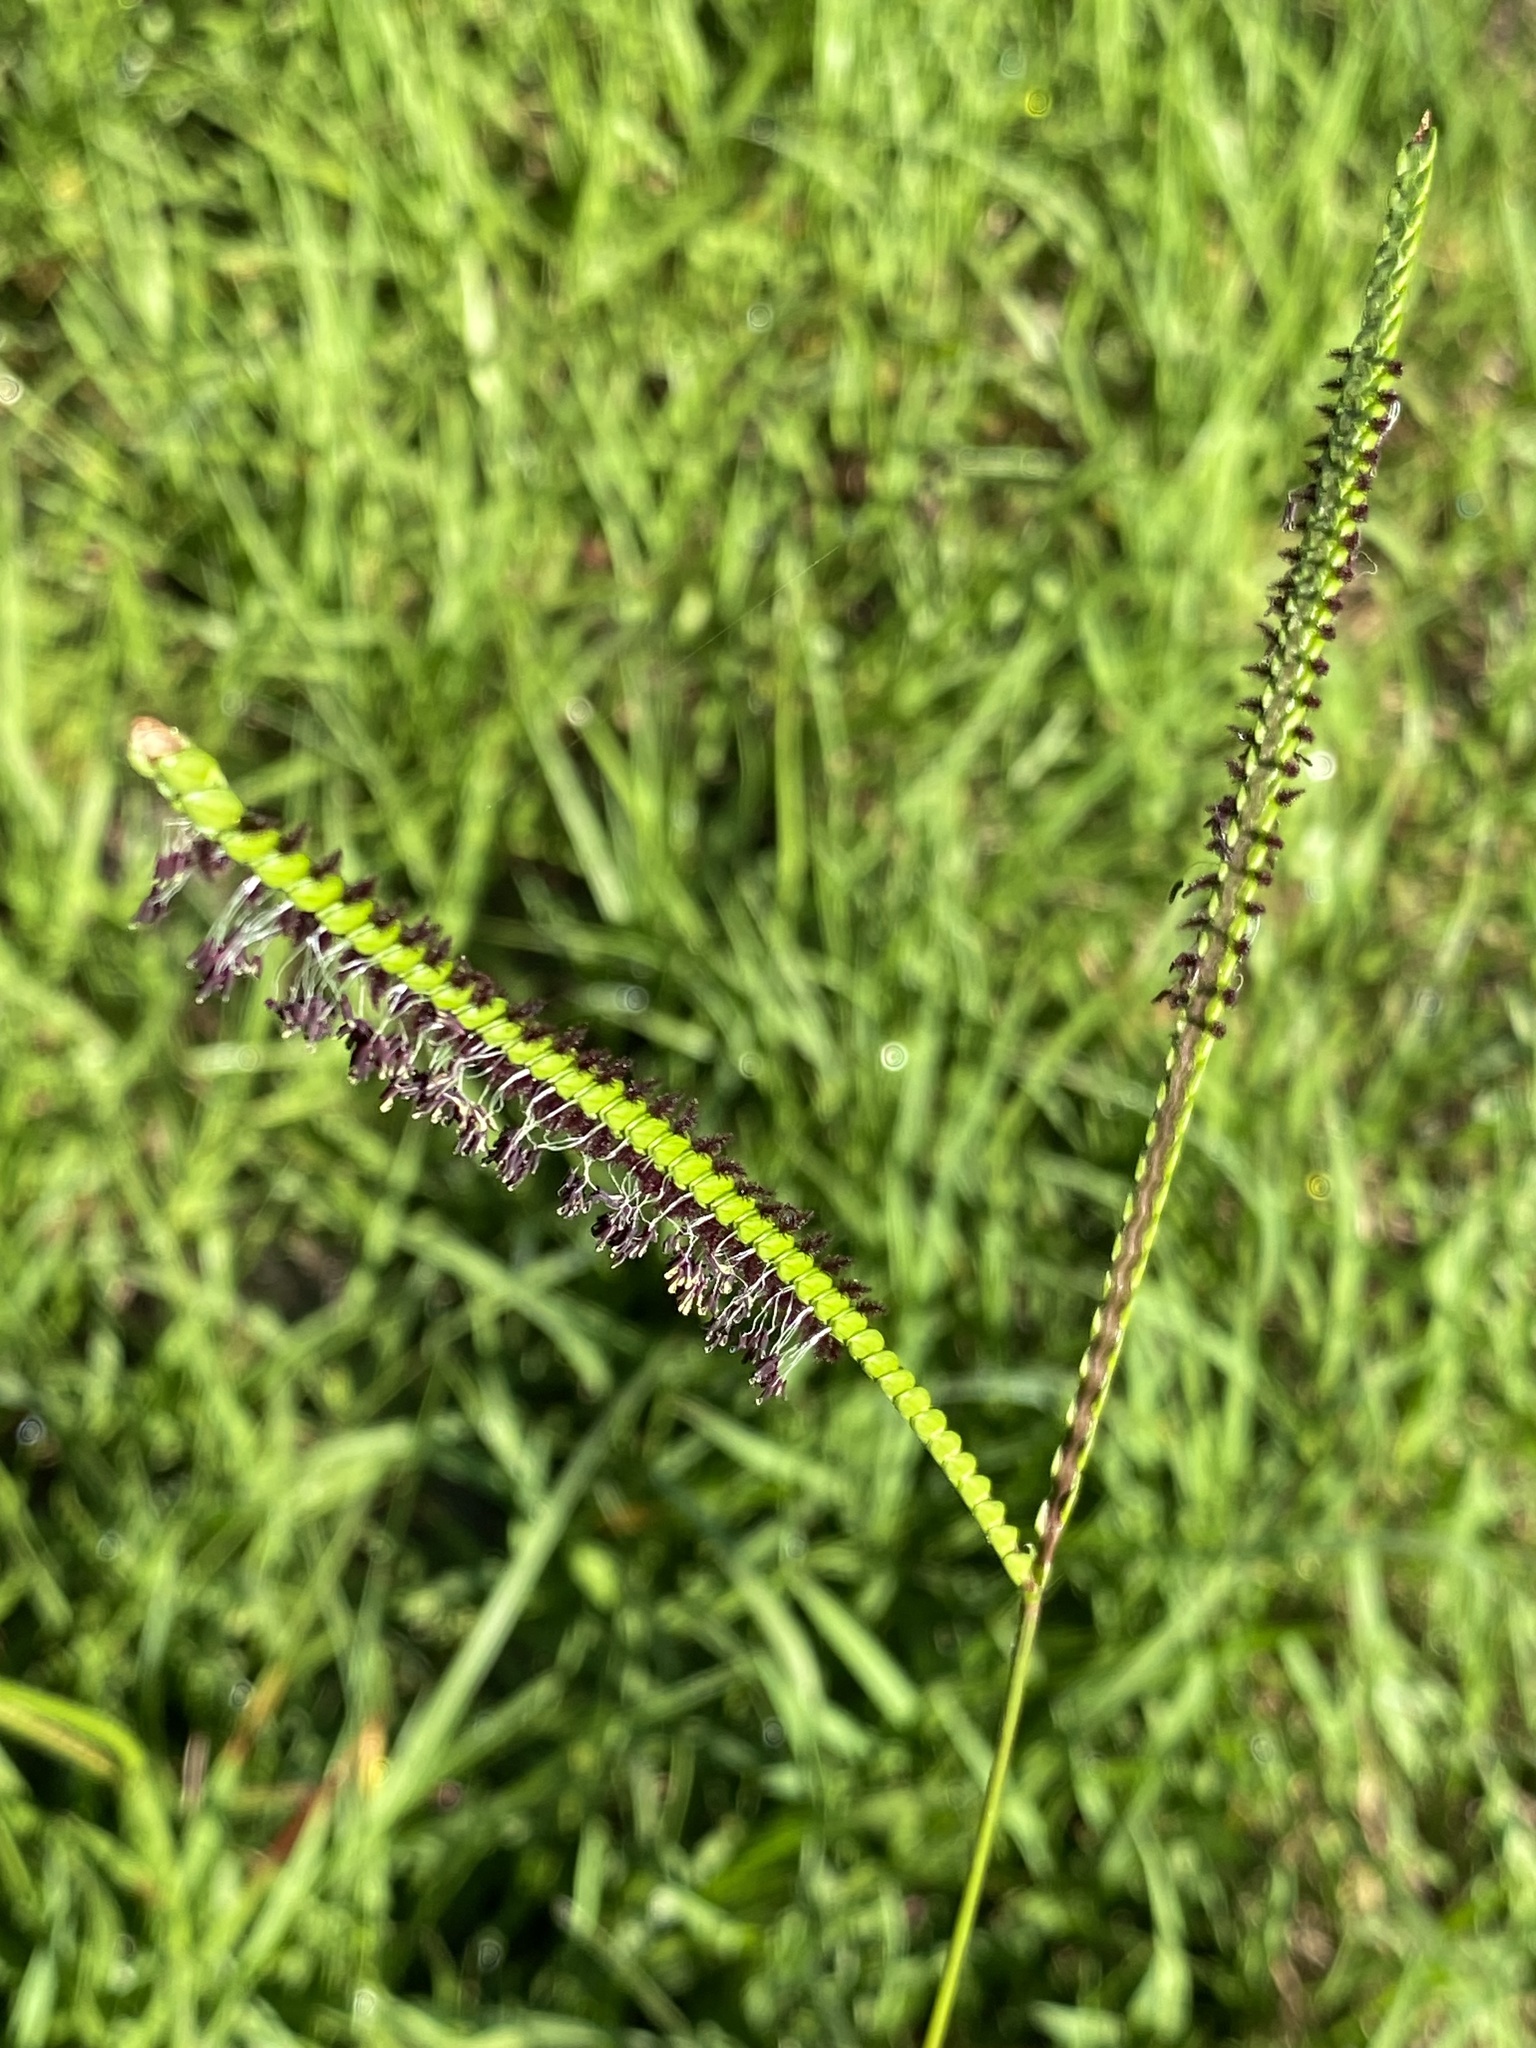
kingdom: Plantae
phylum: Tracheophyta
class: Liliopsida
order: Poales
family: Poaceae
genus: Paspalum
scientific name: Paspalum notatum
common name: Bahiagrass
